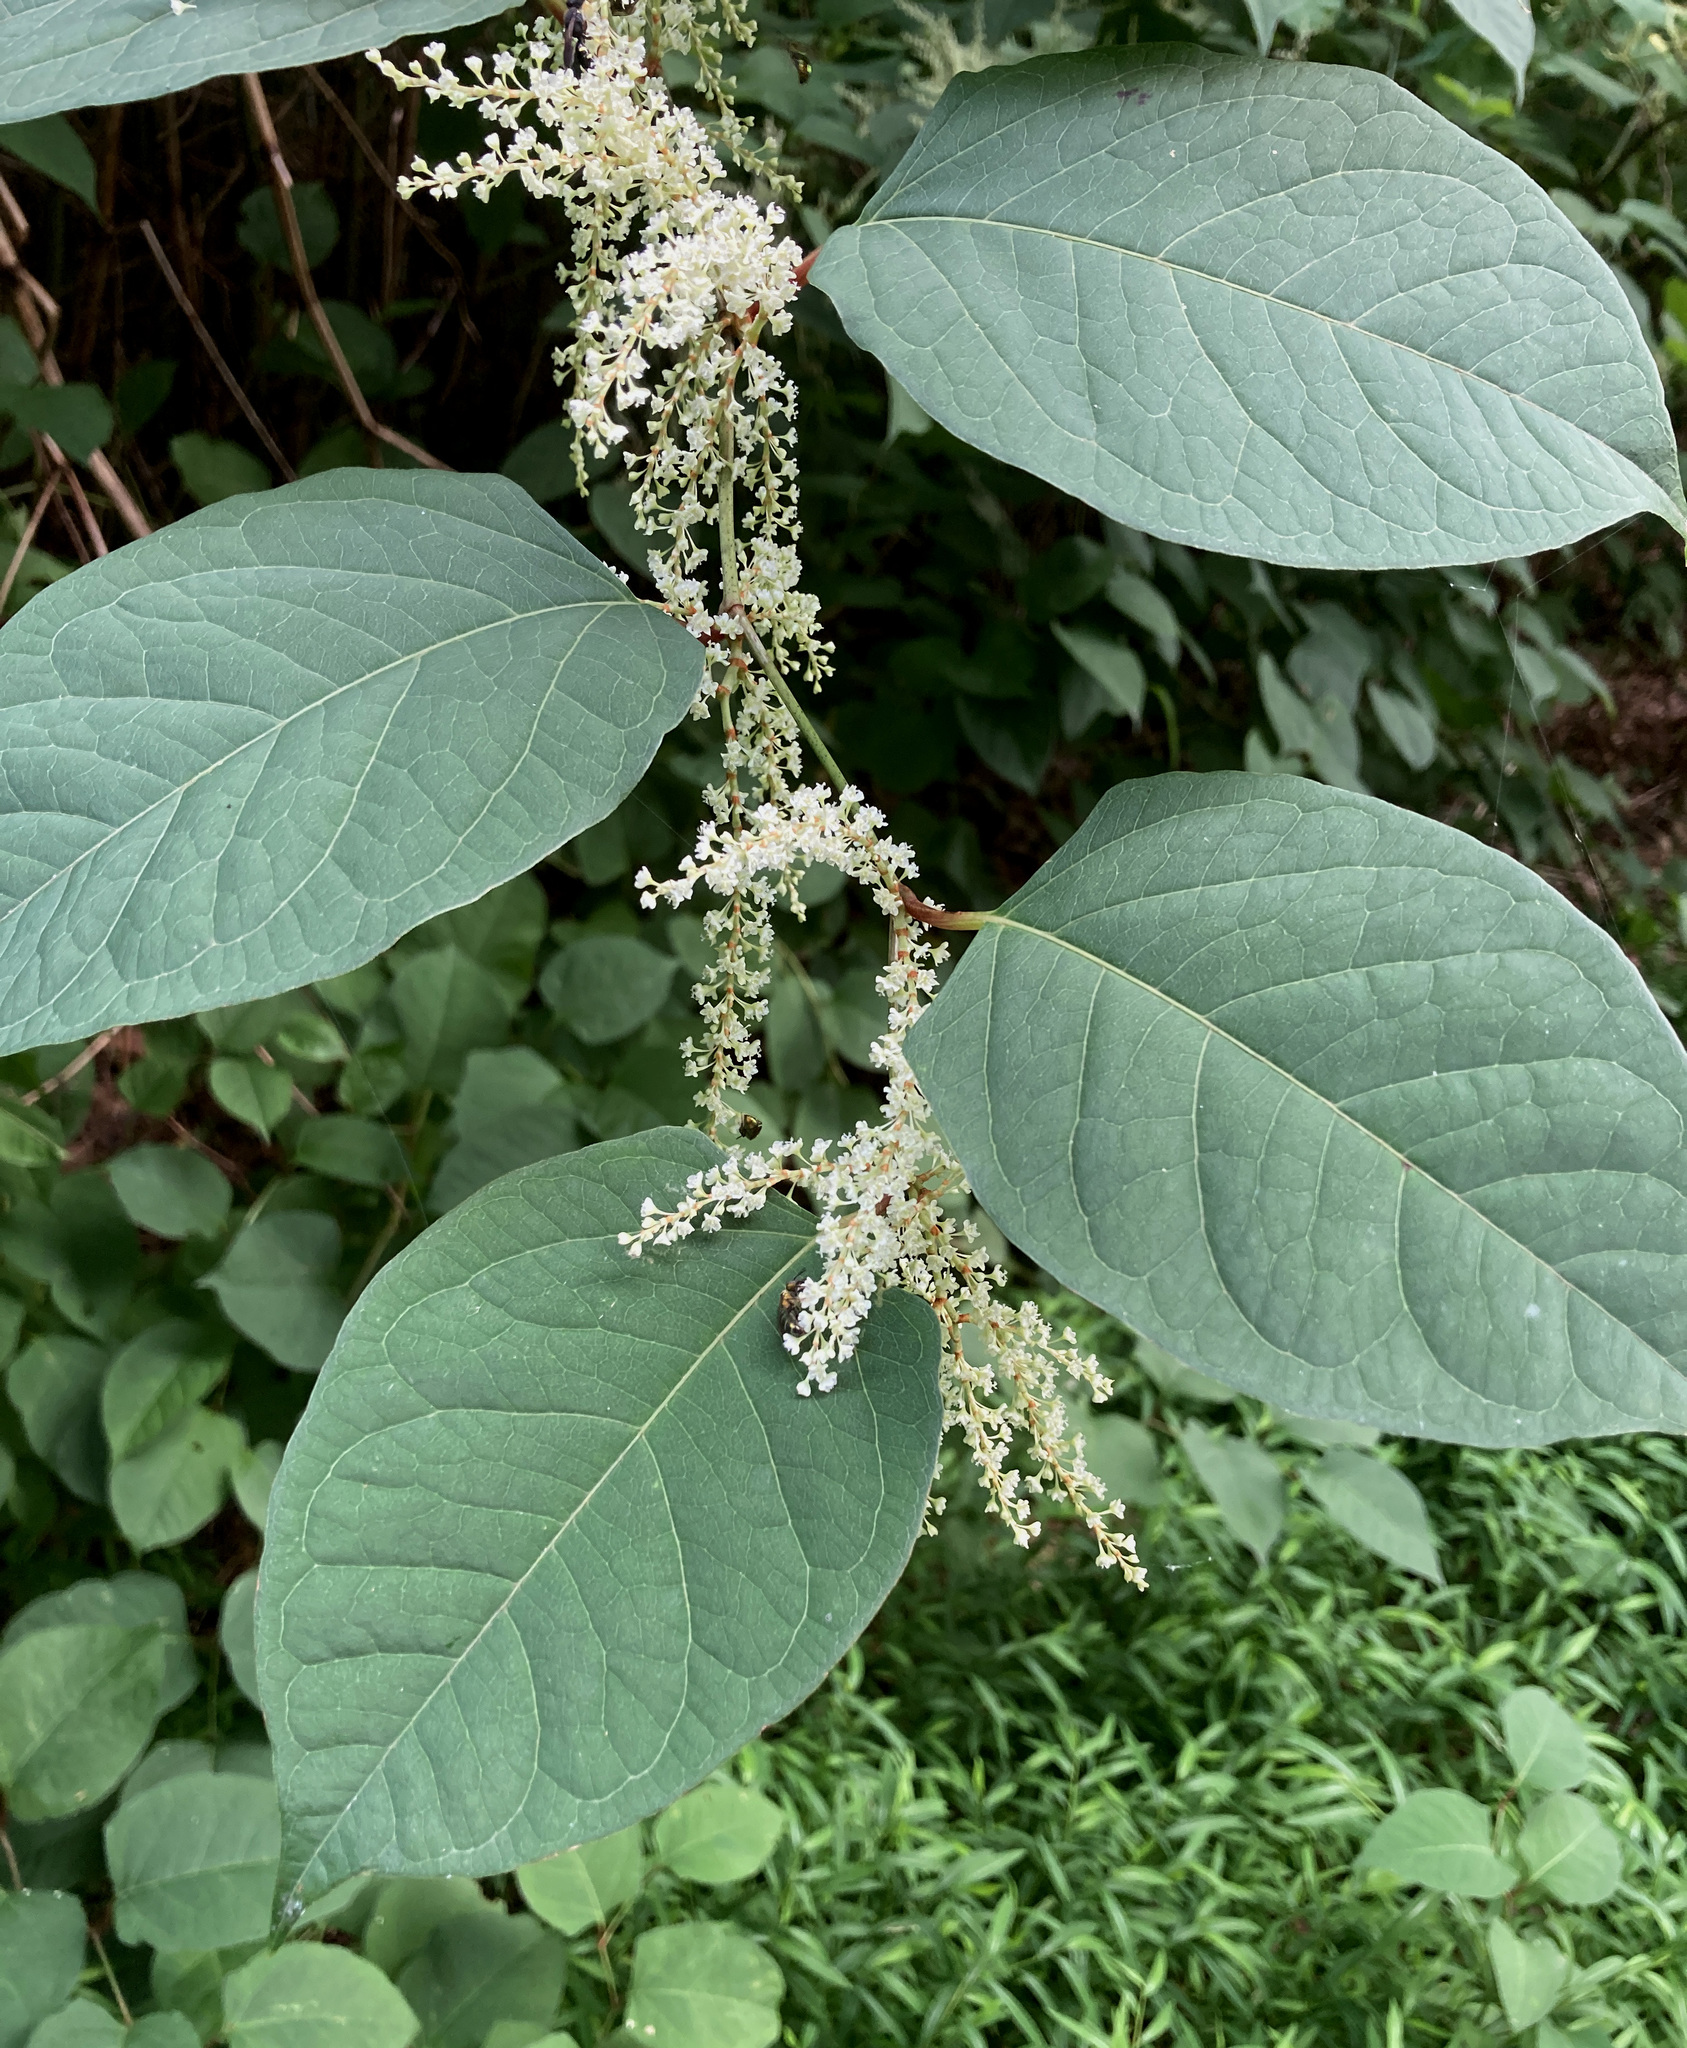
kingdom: Plantae
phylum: Tracheophyta
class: Magnoliopsida
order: Caryophyllales
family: Polygonaceae
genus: Reynoutria
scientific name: Reynoutria japonica
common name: Japanese knotweed
